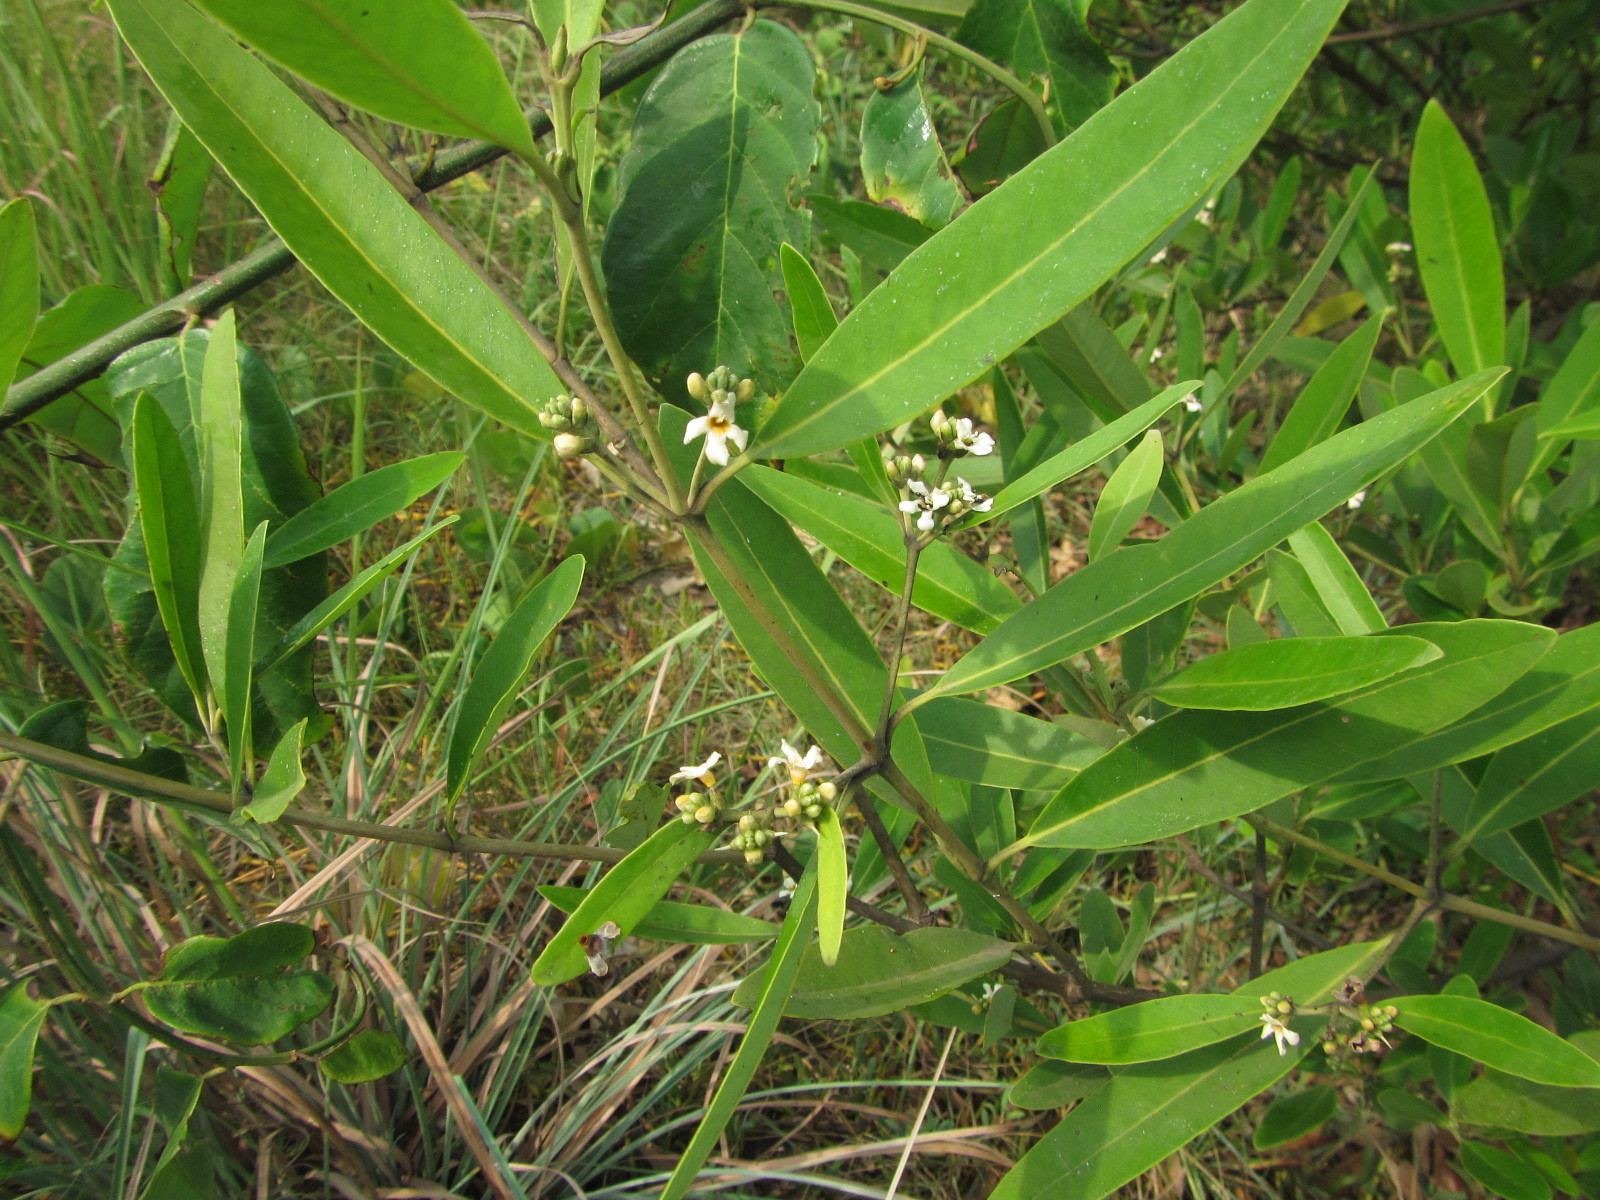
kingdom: Plantae
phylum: Tracheophyta
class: Magnoliopsida
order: Lamiales
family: Acanthaceae
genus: Avicennia
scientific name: Avicennia germinans
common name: Black mangrove
